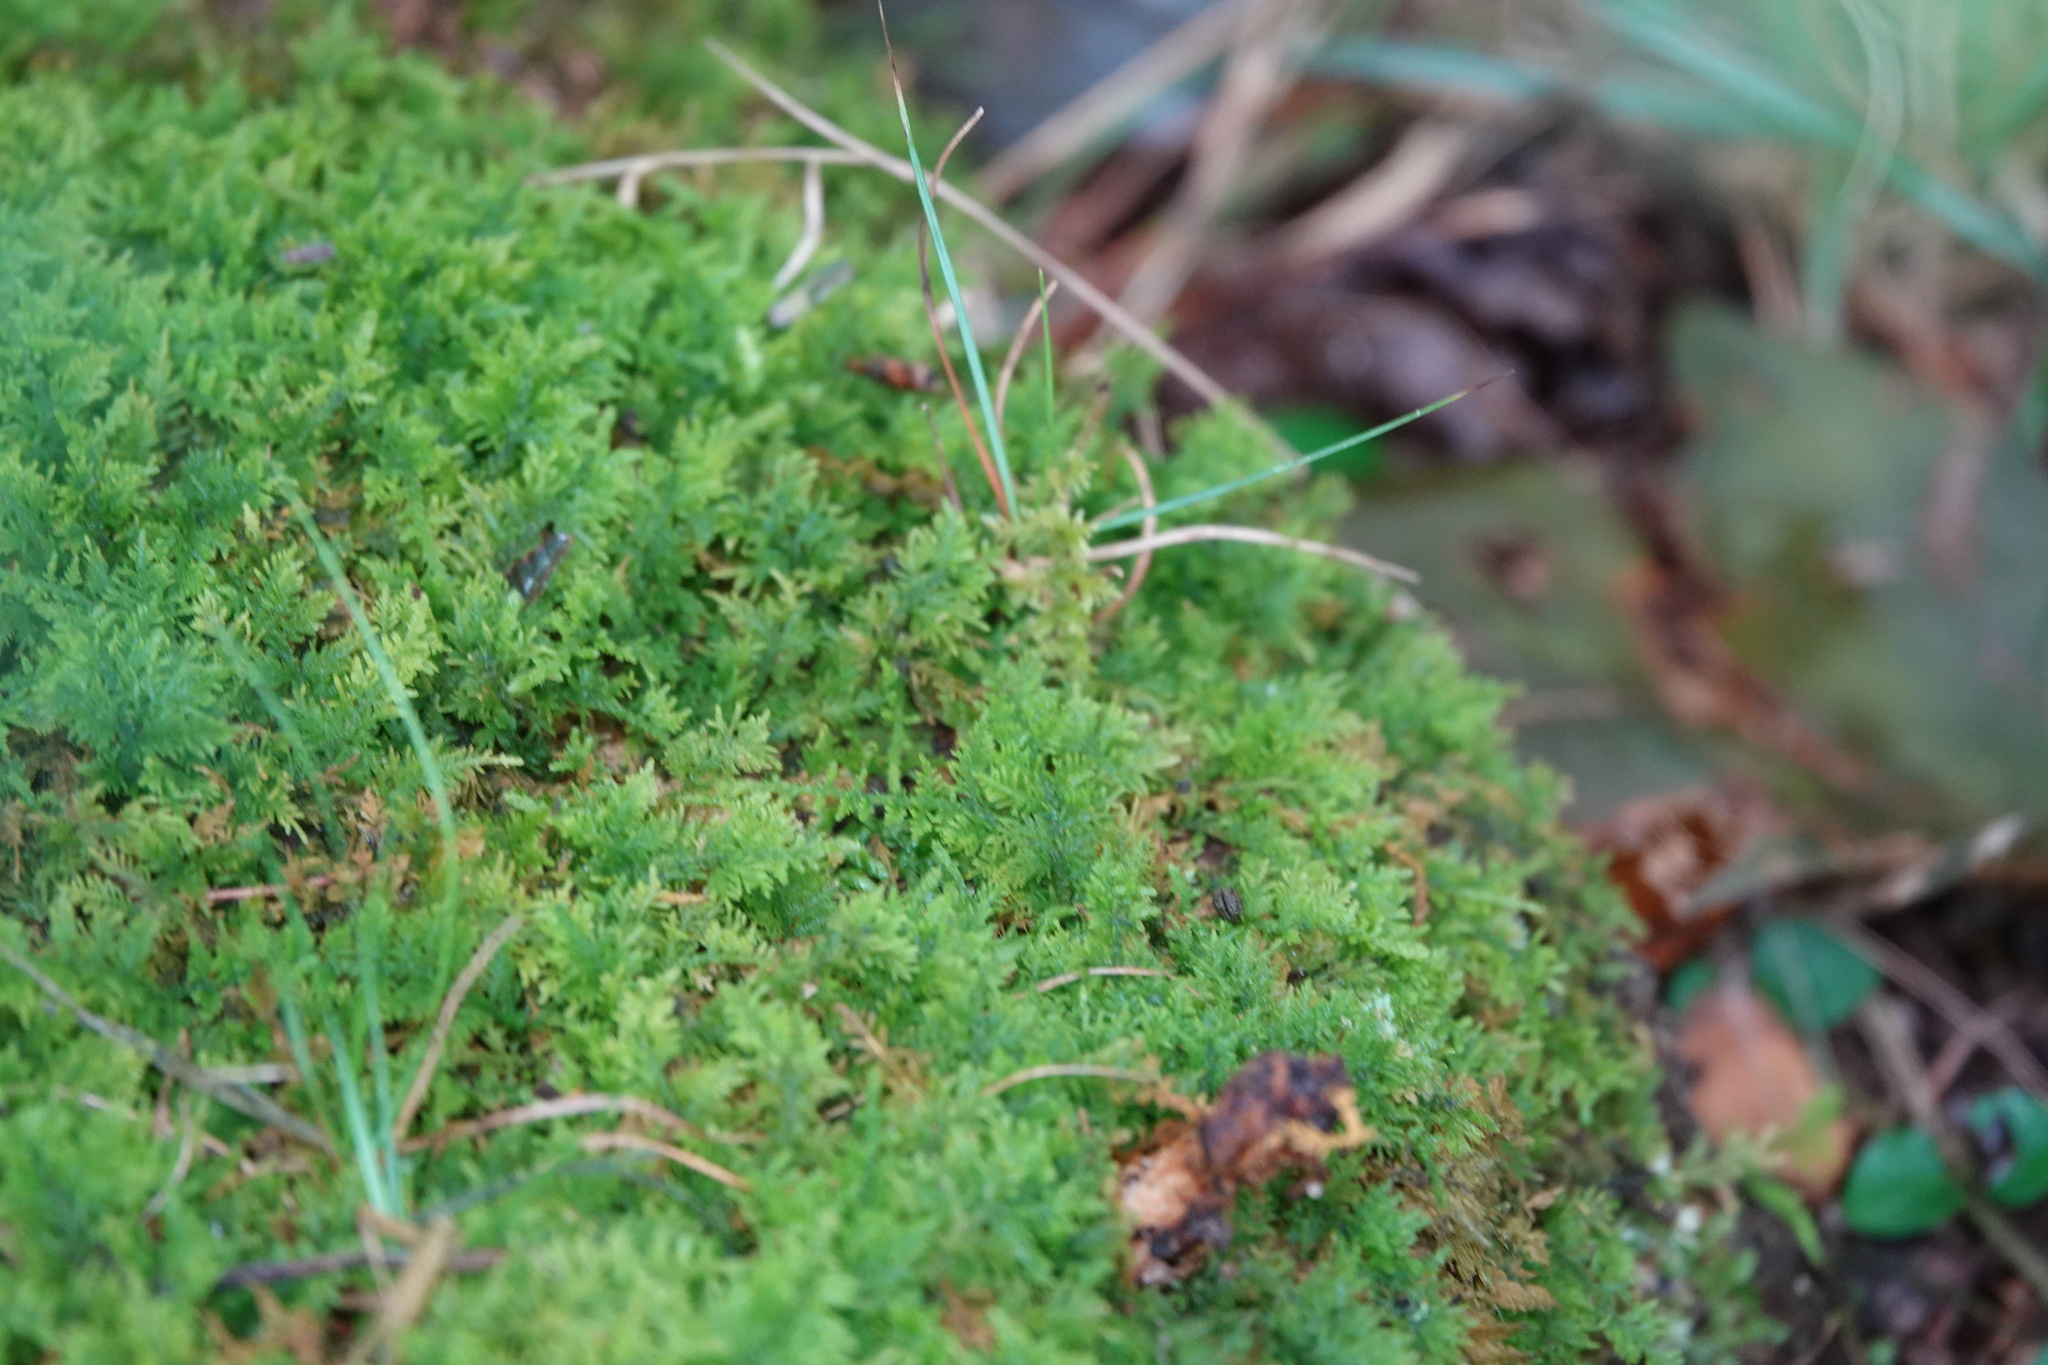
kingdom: Plantae
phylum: Bryophyta
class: Bryopsida
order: Hypnales
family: Thuidiaceae
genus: Thuidium
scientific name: Thuidium delicatulum
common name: Delicate fern moss
